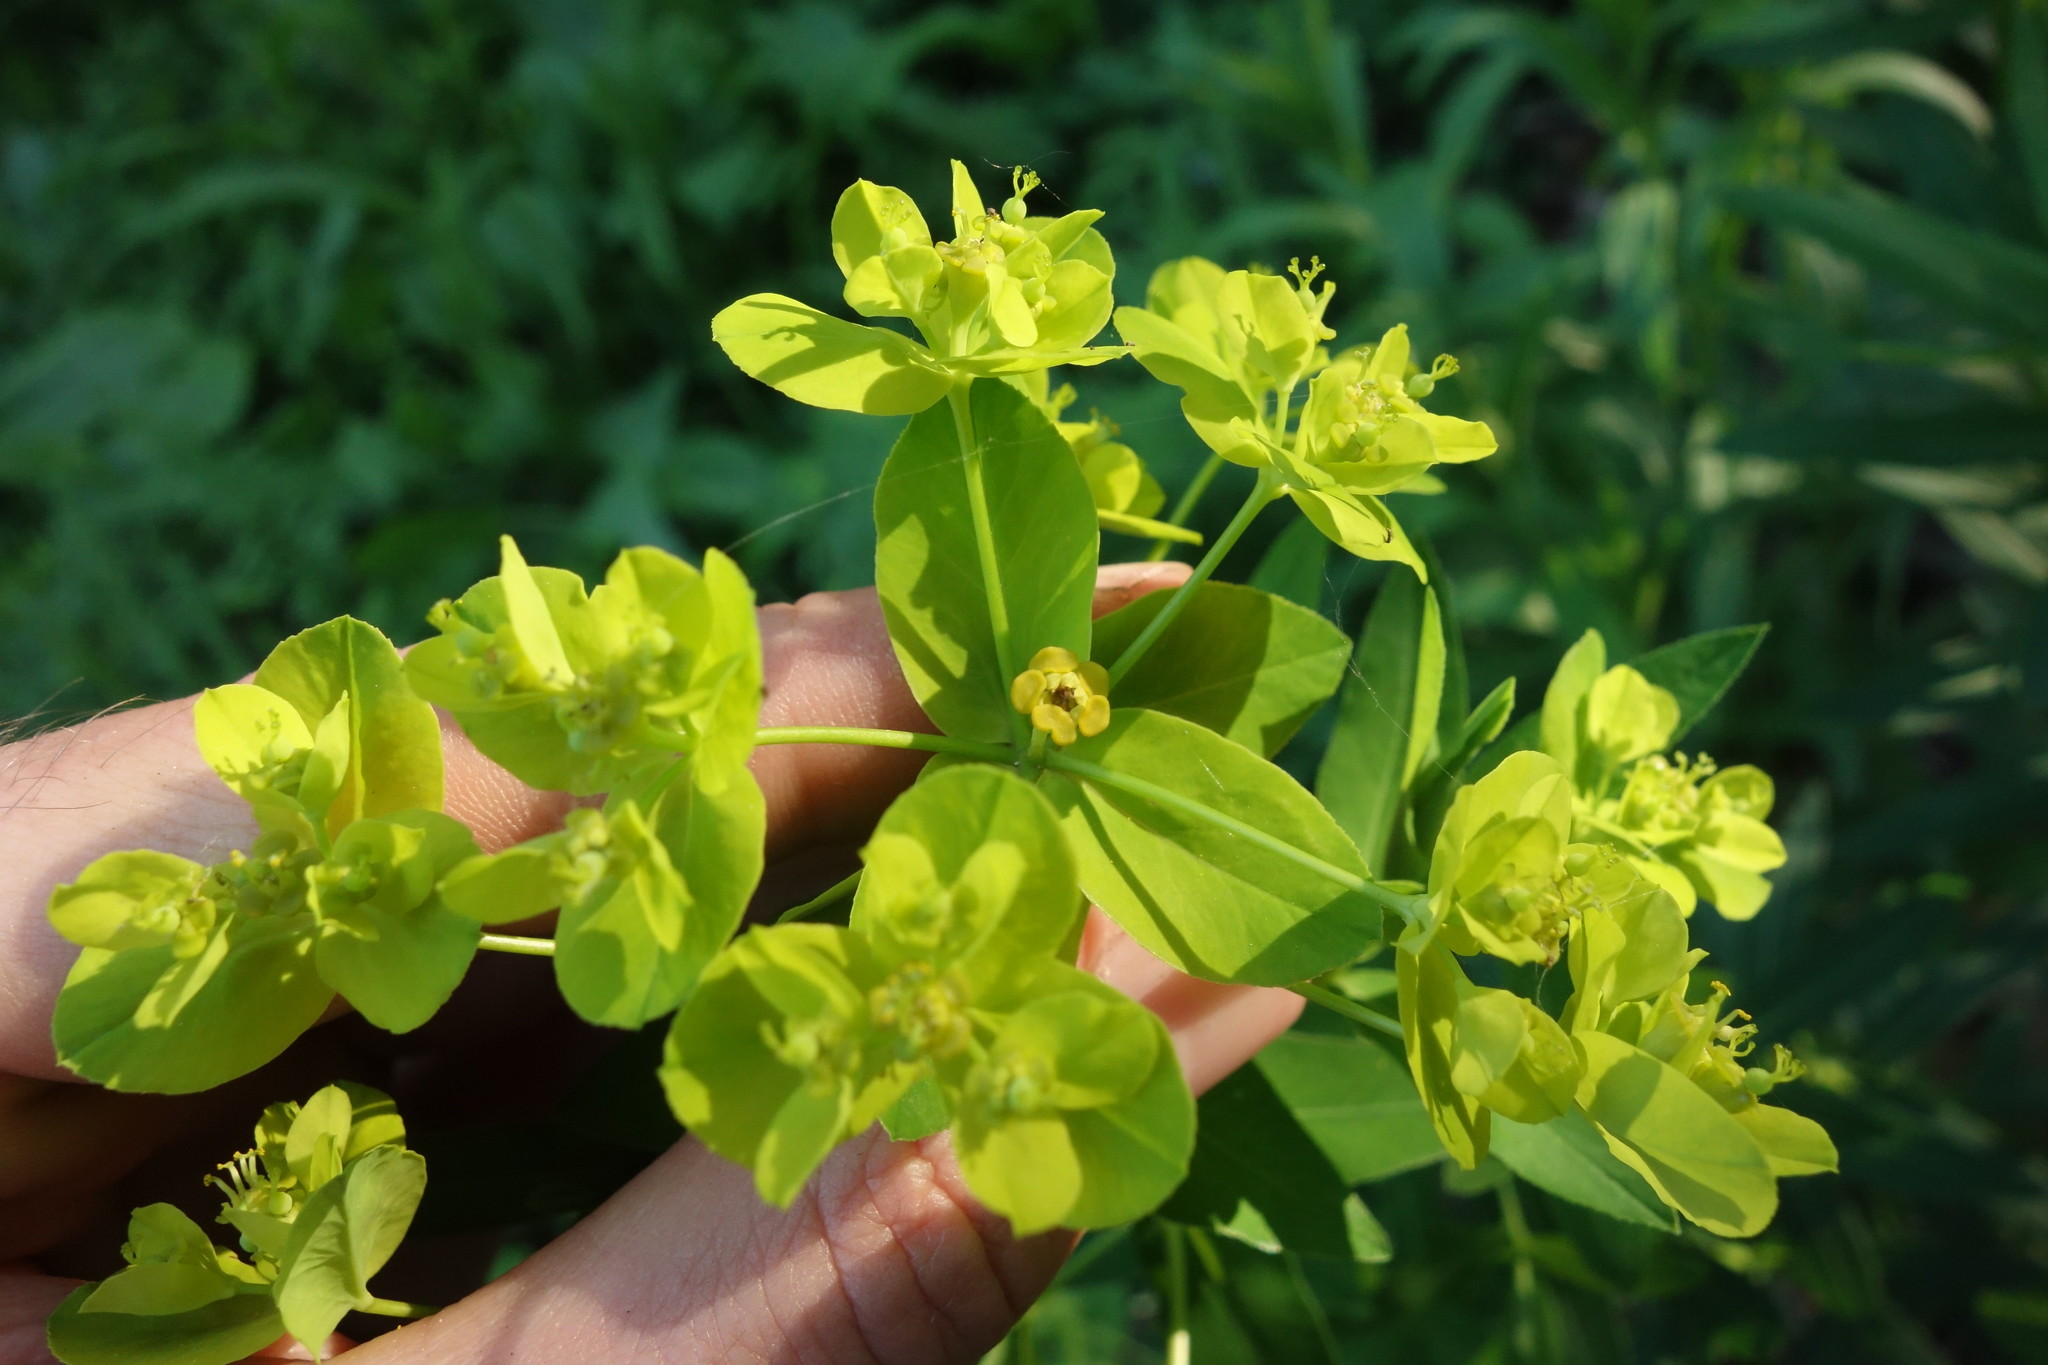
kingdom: Plantae
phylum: Tracheophyta
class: Magnoliopsida
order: Malpighiales
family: Euphorbiaceae
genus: Euphorbia
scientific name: Euphorbia semivillosa
